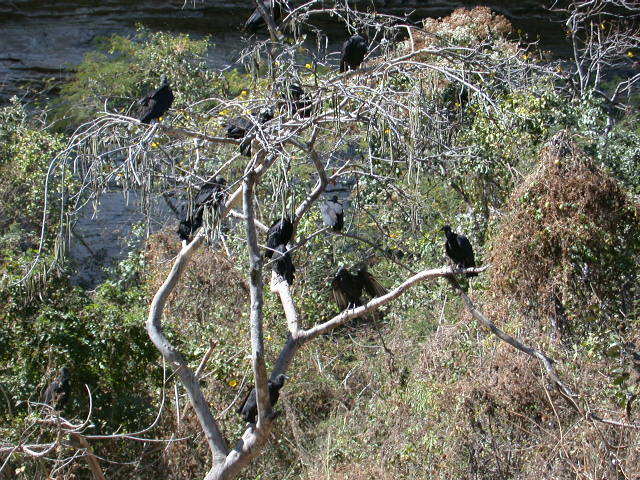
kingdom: Animalia
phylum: Chordata
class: Aves
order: Accipitriformes
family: Cathartidae
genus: Coragyps
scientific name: Coragyps atratus
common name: Black vulture
